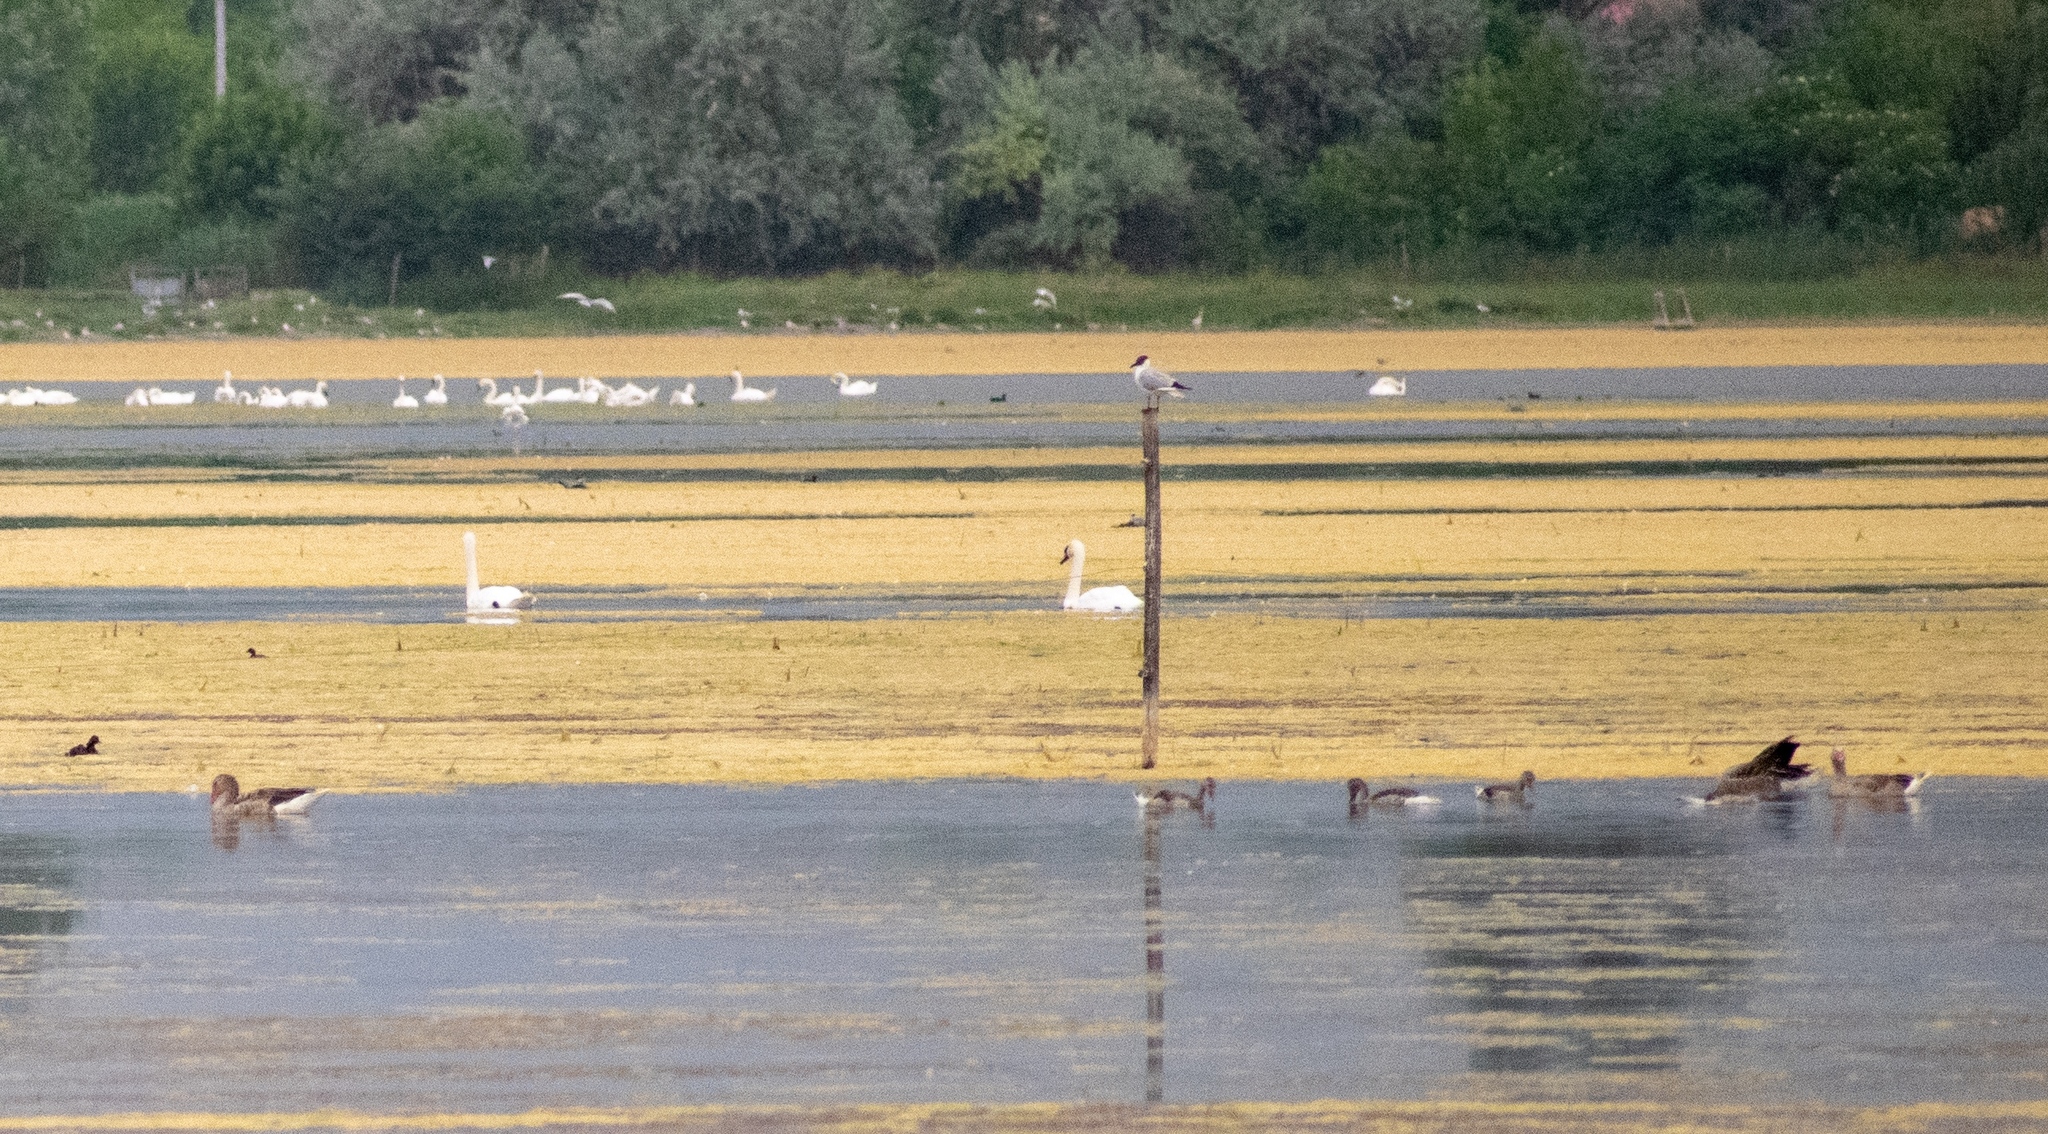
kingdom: Animalia
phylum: Chordata
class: Aves
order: Charadriiformes
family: Laridae
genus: Chroicocephalus
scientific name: Chroicocephalus ridibundus
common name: Black-headed gull
